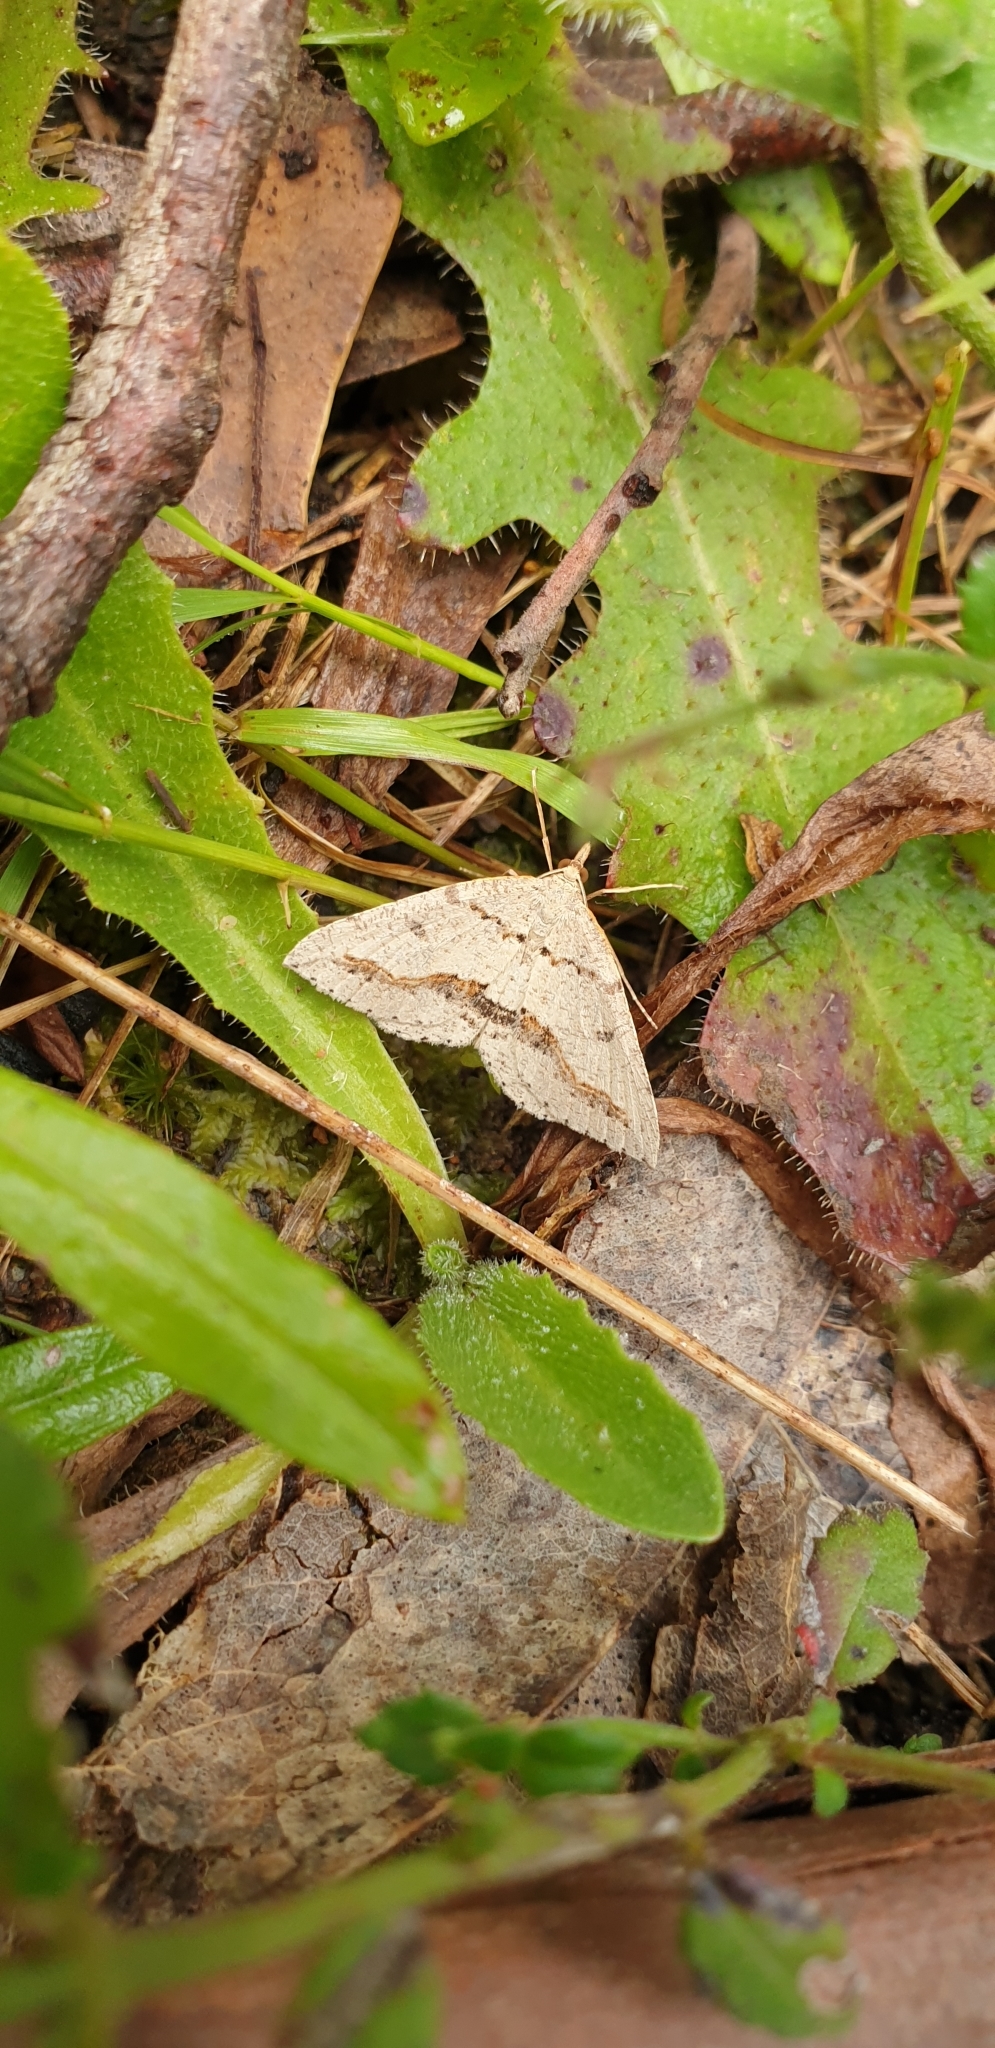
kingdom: Animalia
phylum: Arthropoda
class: Insecta
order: Lepidoptera
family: Geometridae
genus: Taxeotis
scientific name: Taxeotis stereospila
